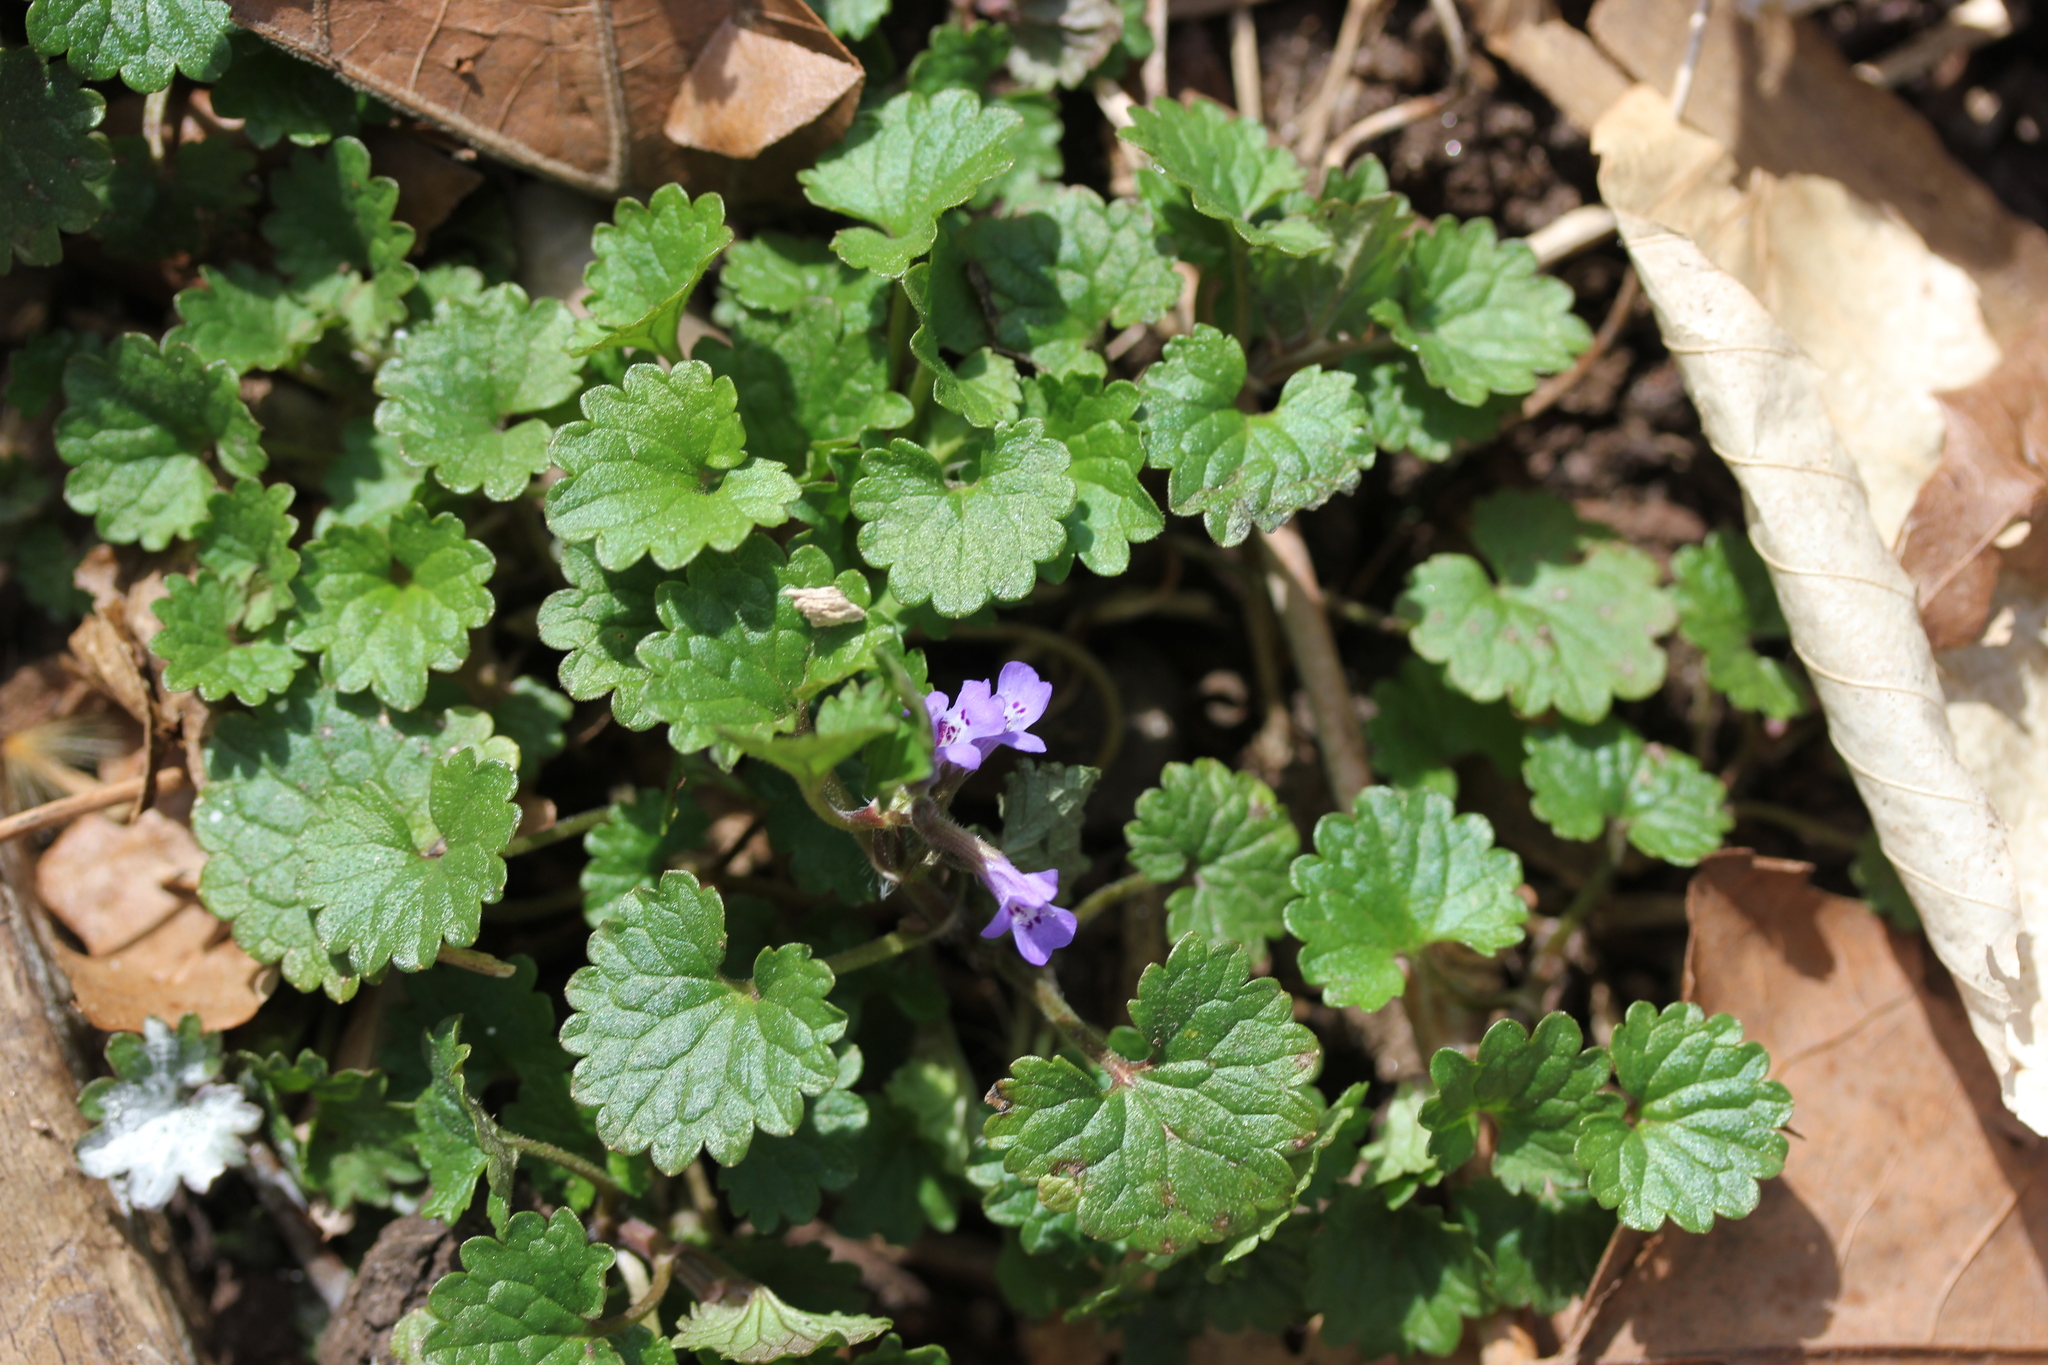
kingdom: Plantae
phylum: Tracheophyta
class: Magnoliopsida
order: Lamiales
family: Lamiaceae
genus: Glechoma
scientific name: Glechoma hederacea
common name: Ground ivy
